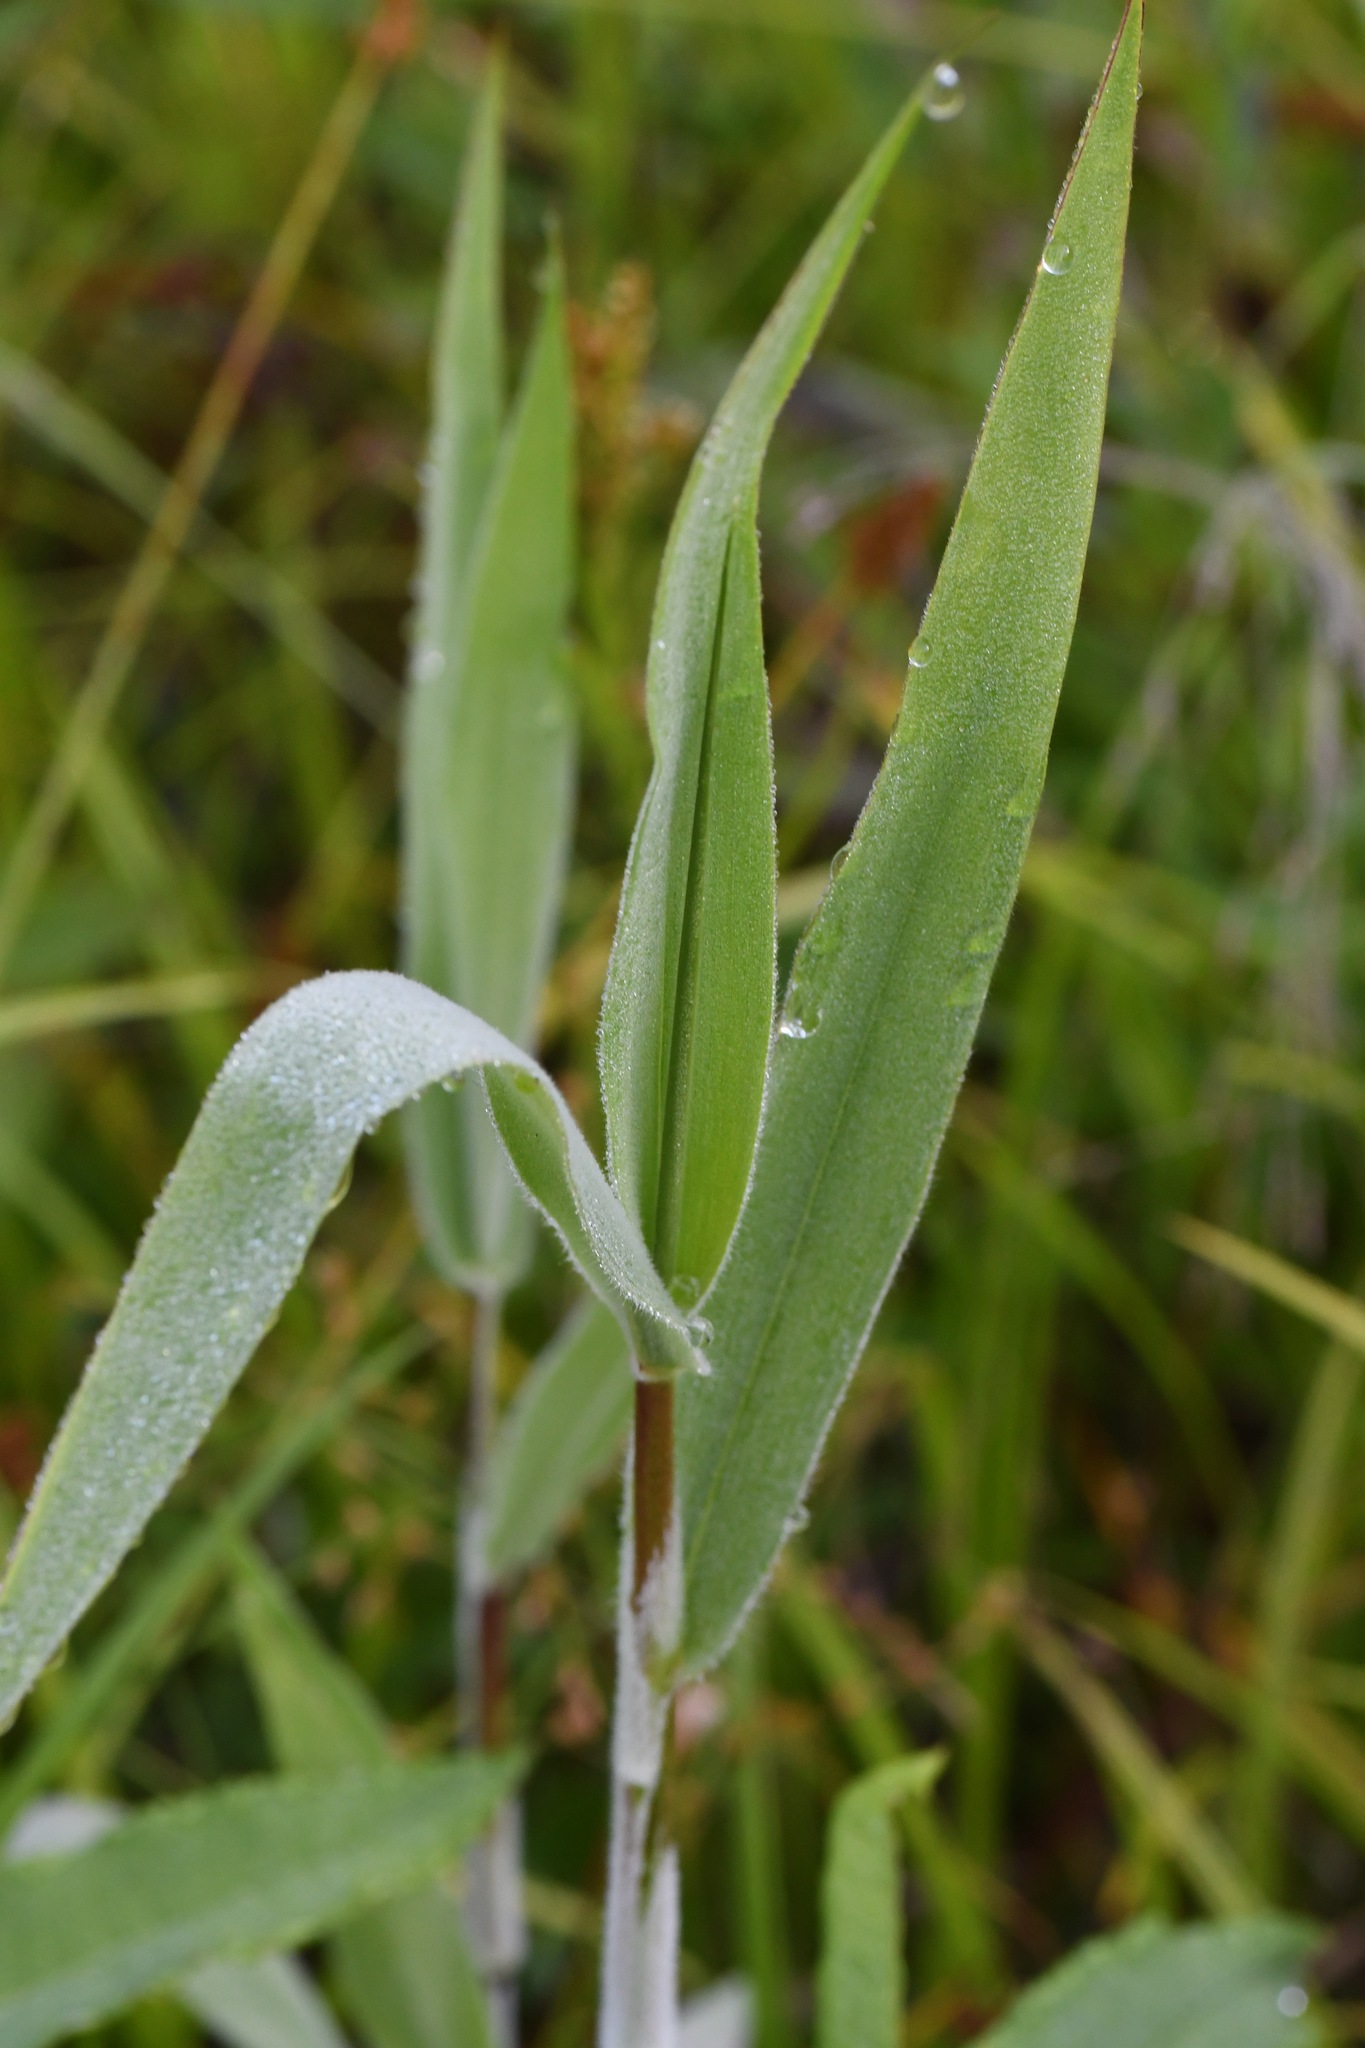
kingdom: Plantae
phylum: Tracheophyta
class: Liliopsida
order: Poales
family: Poaceae
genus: Dichanthelium
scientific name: Dichanthelium scoparium
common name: Velvety panic grass
